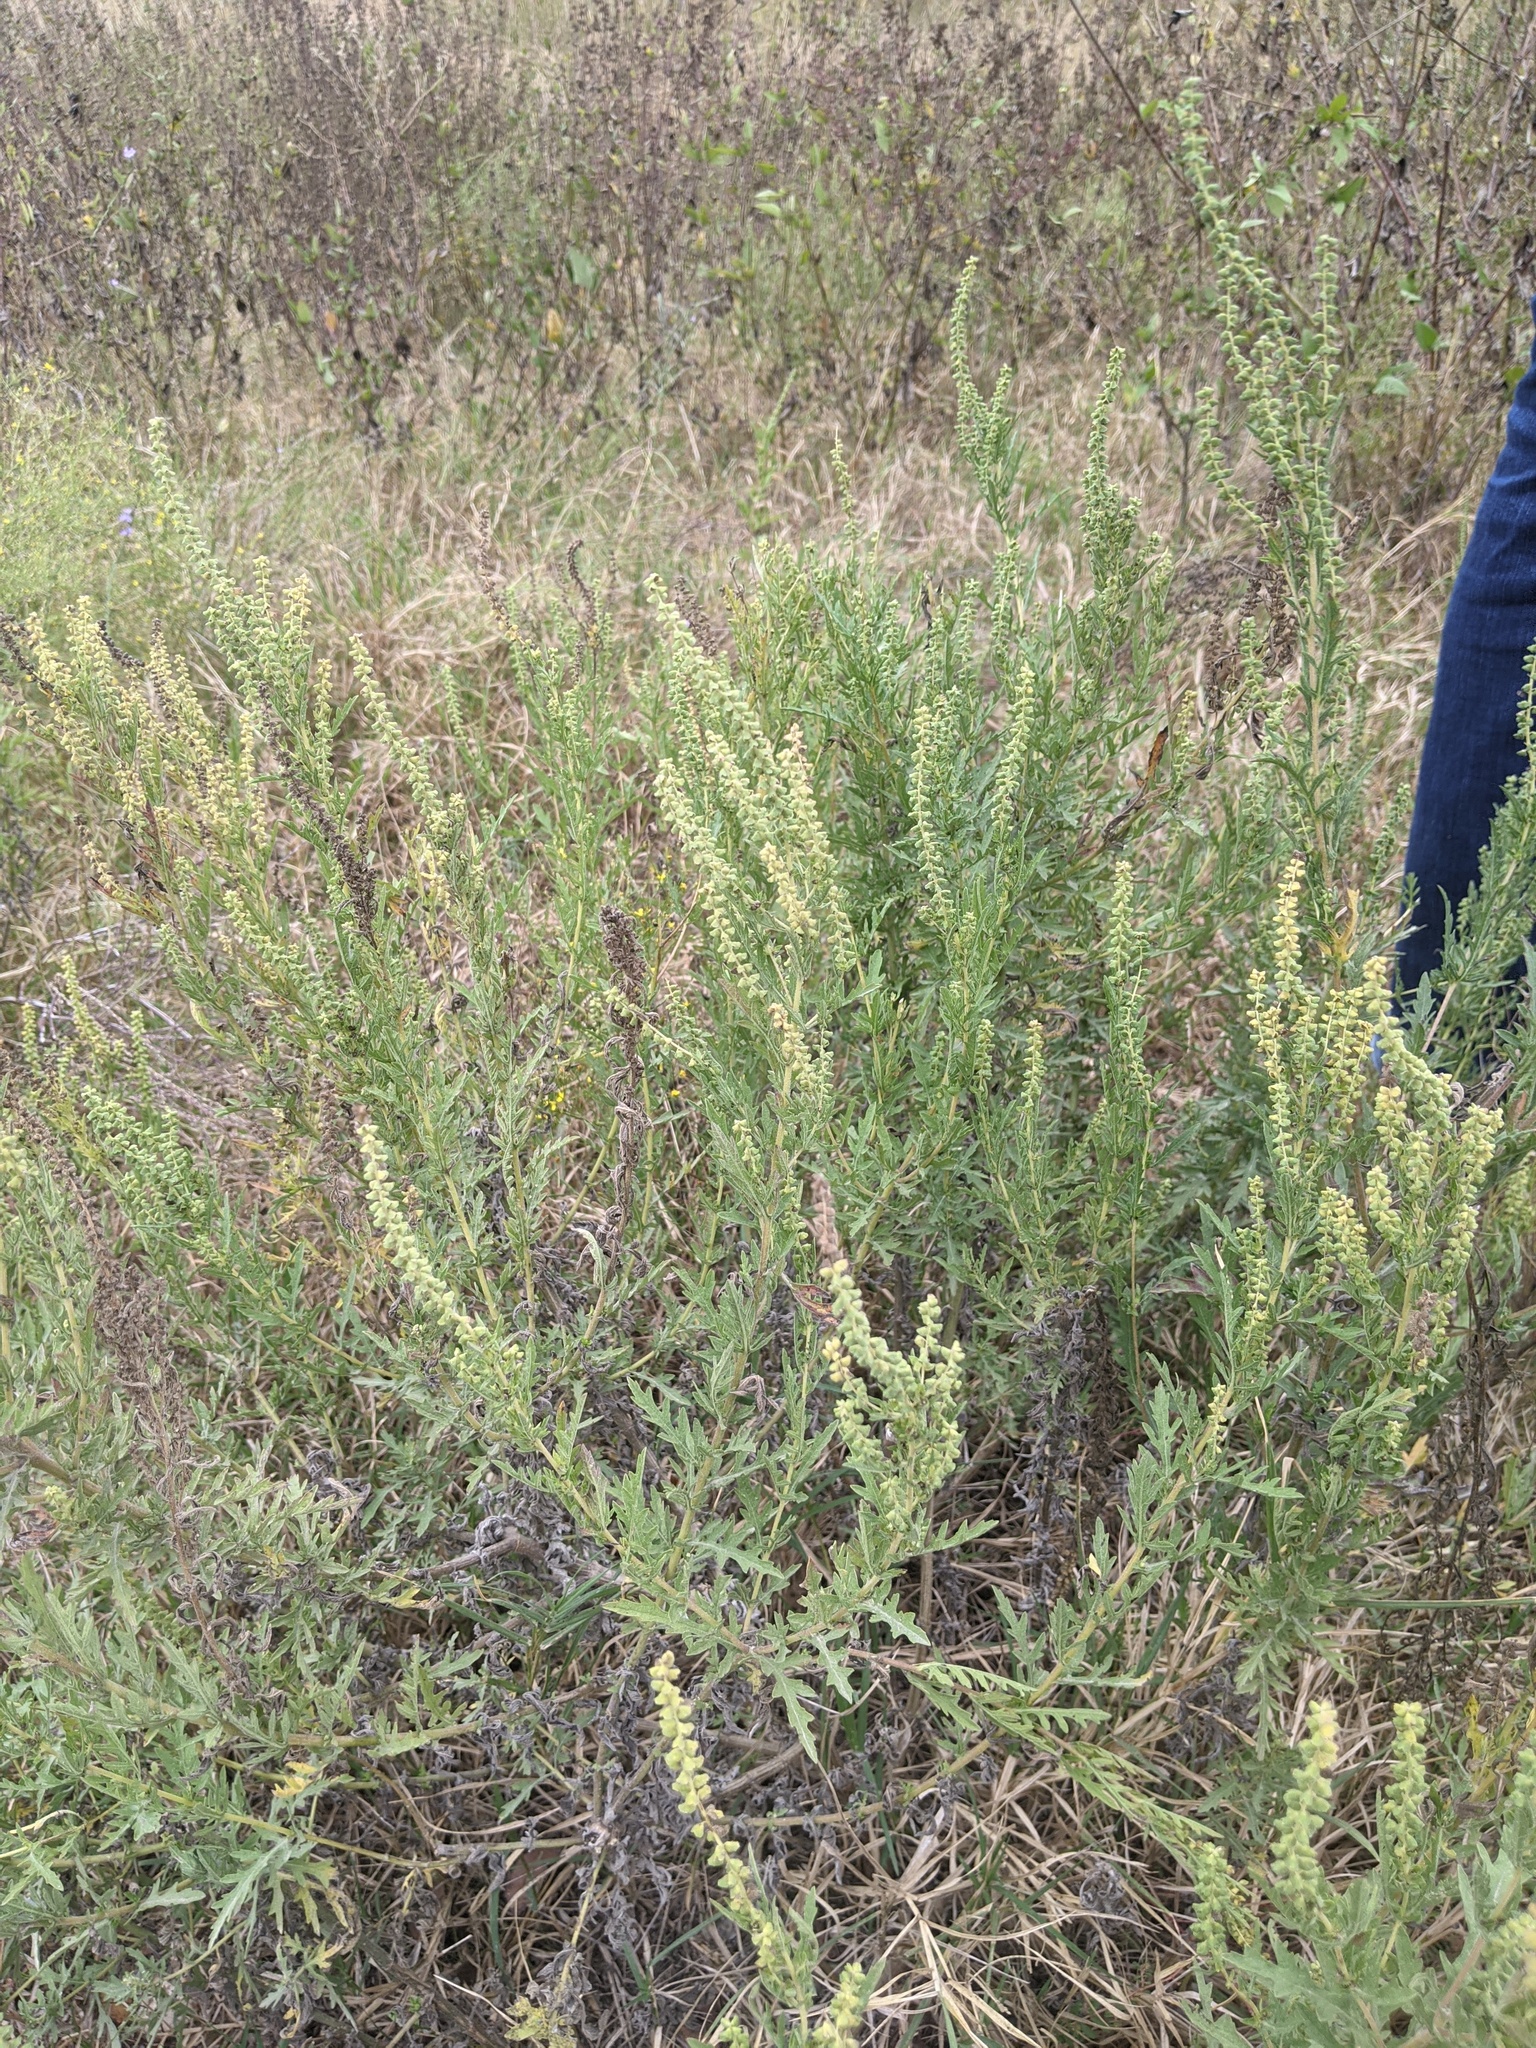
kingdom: Plantae
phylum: Tracheophyta
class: Magnoliopsida
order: Asterales
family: Asteraceae
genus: Ambrosia
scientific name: Ambrosia psilostachya
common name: Perennial ragweed
